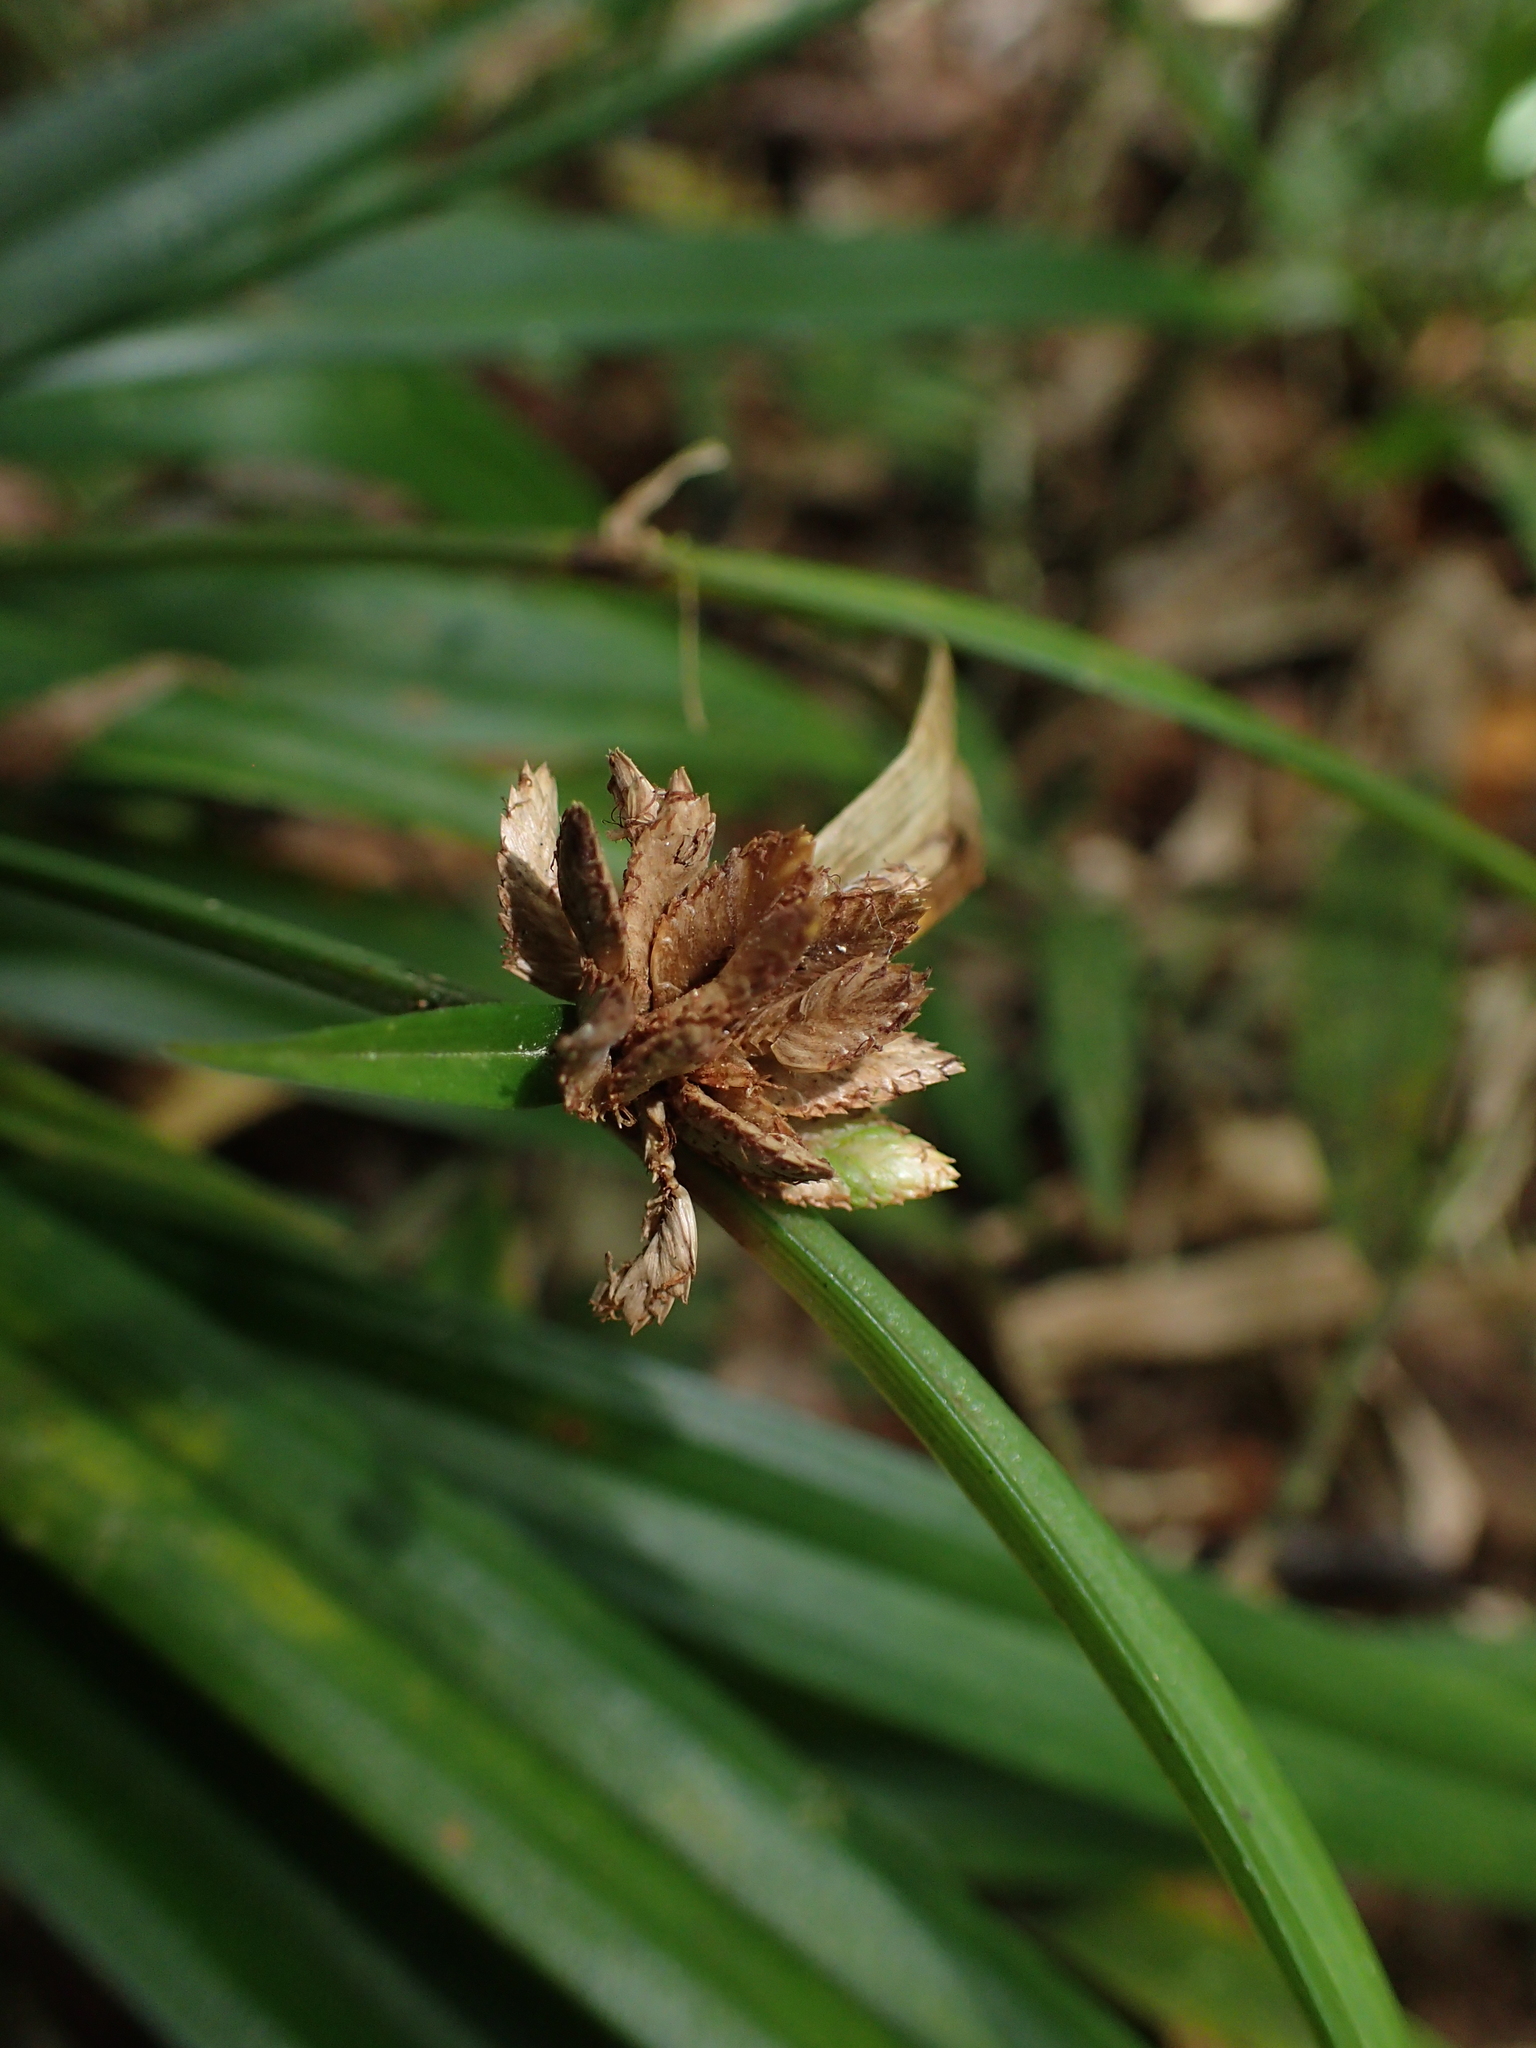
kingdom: Plantae
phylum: Tracheophyta
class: Liliopsida
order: Poales
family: Cyperaceae
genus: Cyperus
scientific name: Cyperus rufostriatus
